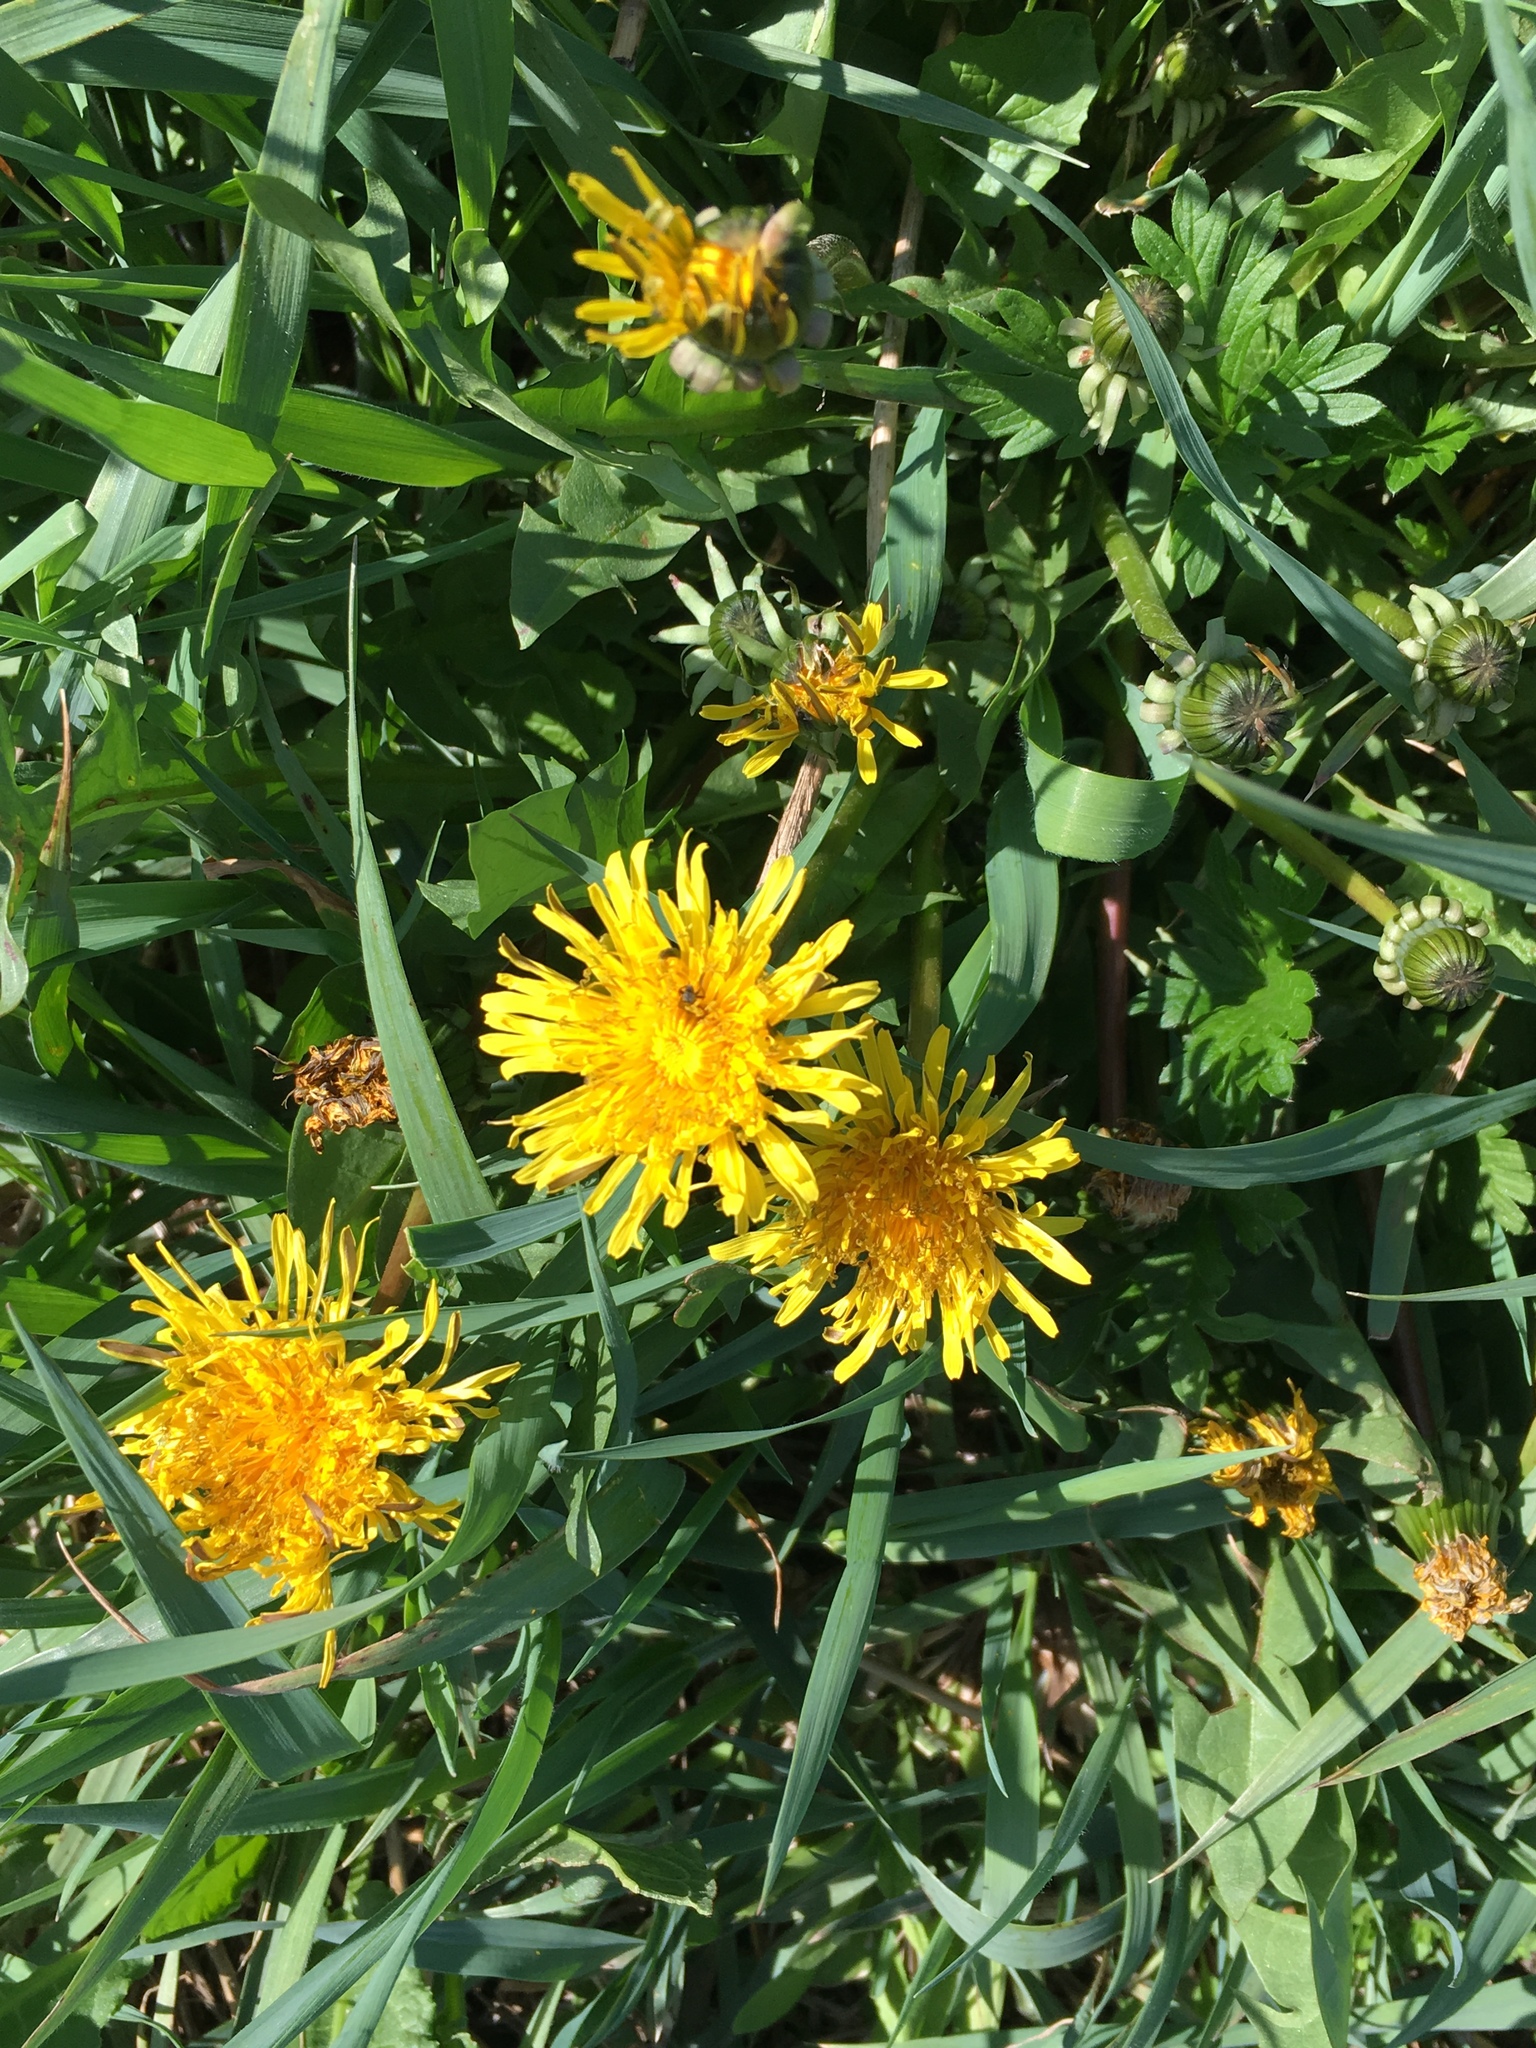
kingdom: Plantae
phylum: Tracheophyta
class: Magnoliopsida
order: Asterales
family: Asteraceae
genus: Taraxacum
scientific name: Taraxacum officinale
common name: Common dandelion
